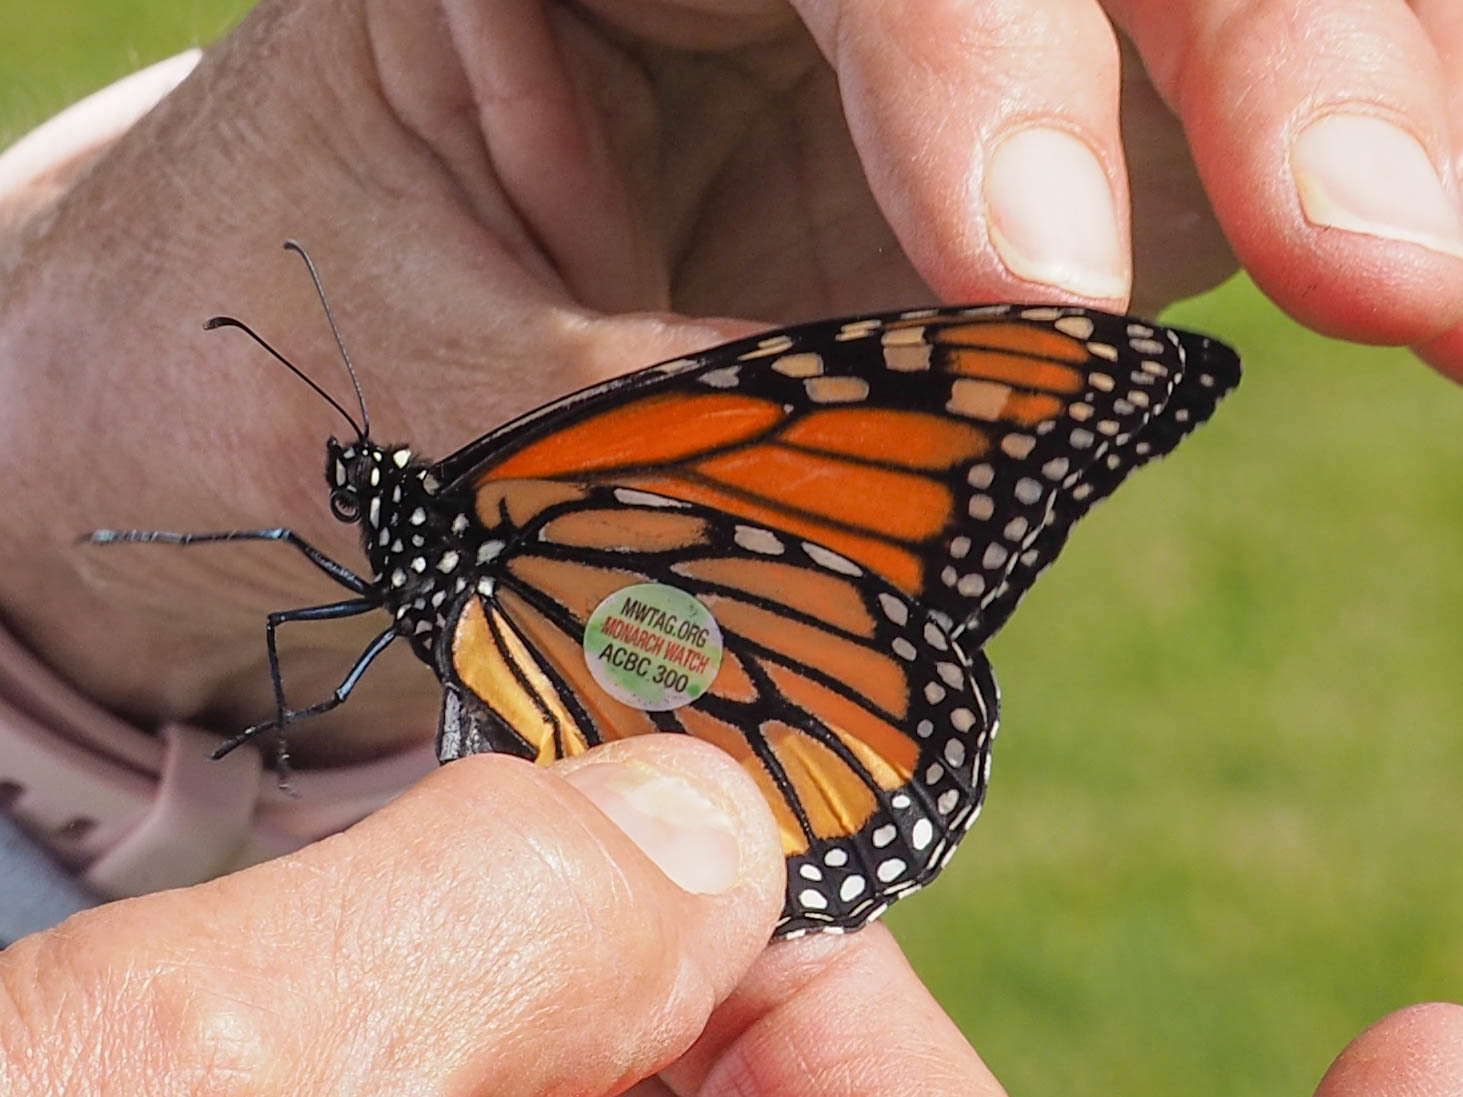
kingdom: Animalia
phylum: Arthropoda
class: Insecta
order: Lepidoptera
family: Nymphalidae
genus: Danaus
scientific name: Danaus plexippus
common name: Monarch
